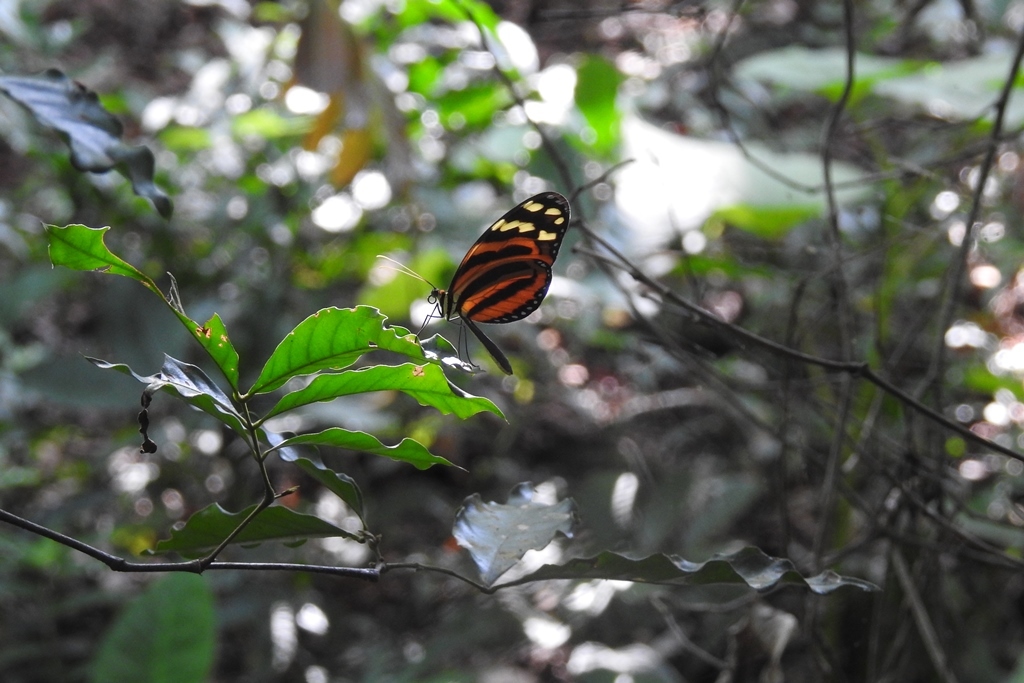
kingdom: Animalia
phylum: Arthropoda
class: Insecta
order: Lepidoptera
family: Nymphalidae
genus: Melinaea
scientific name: Melinaea lilis
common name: Mimic tigerwing
